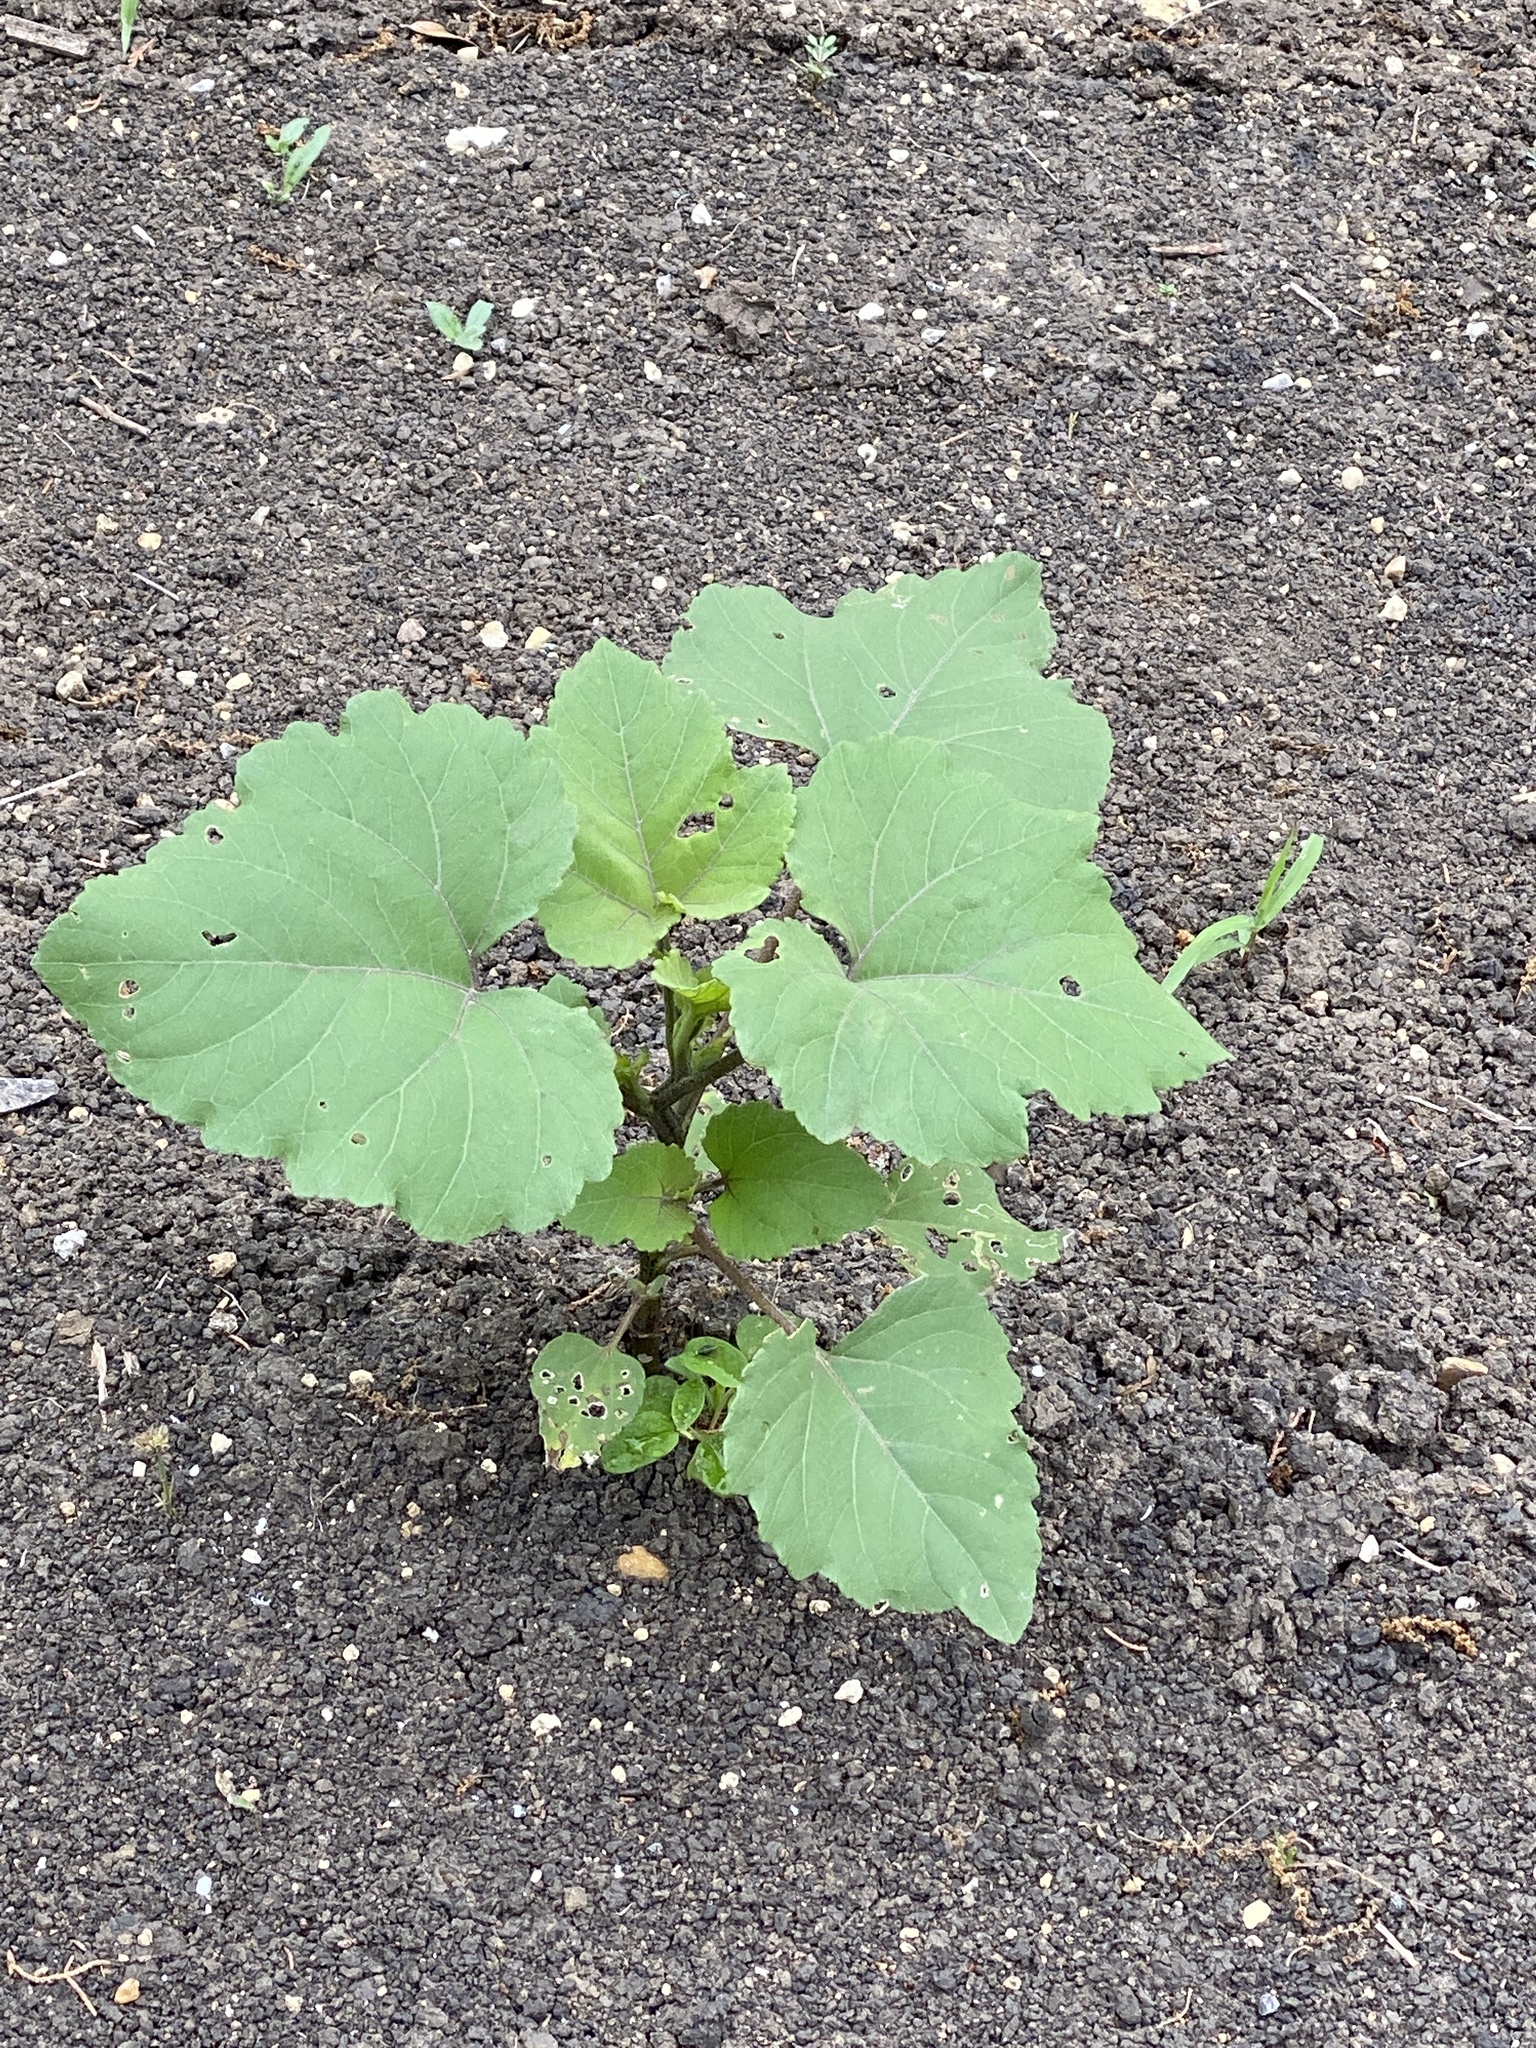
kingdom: Plantae
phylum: Tracheophyta
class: Magnoliopsida
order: Asterales
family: Asteraceae
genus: Xanthium
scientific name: Xanthium strumarium
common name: Rough cocklebur
